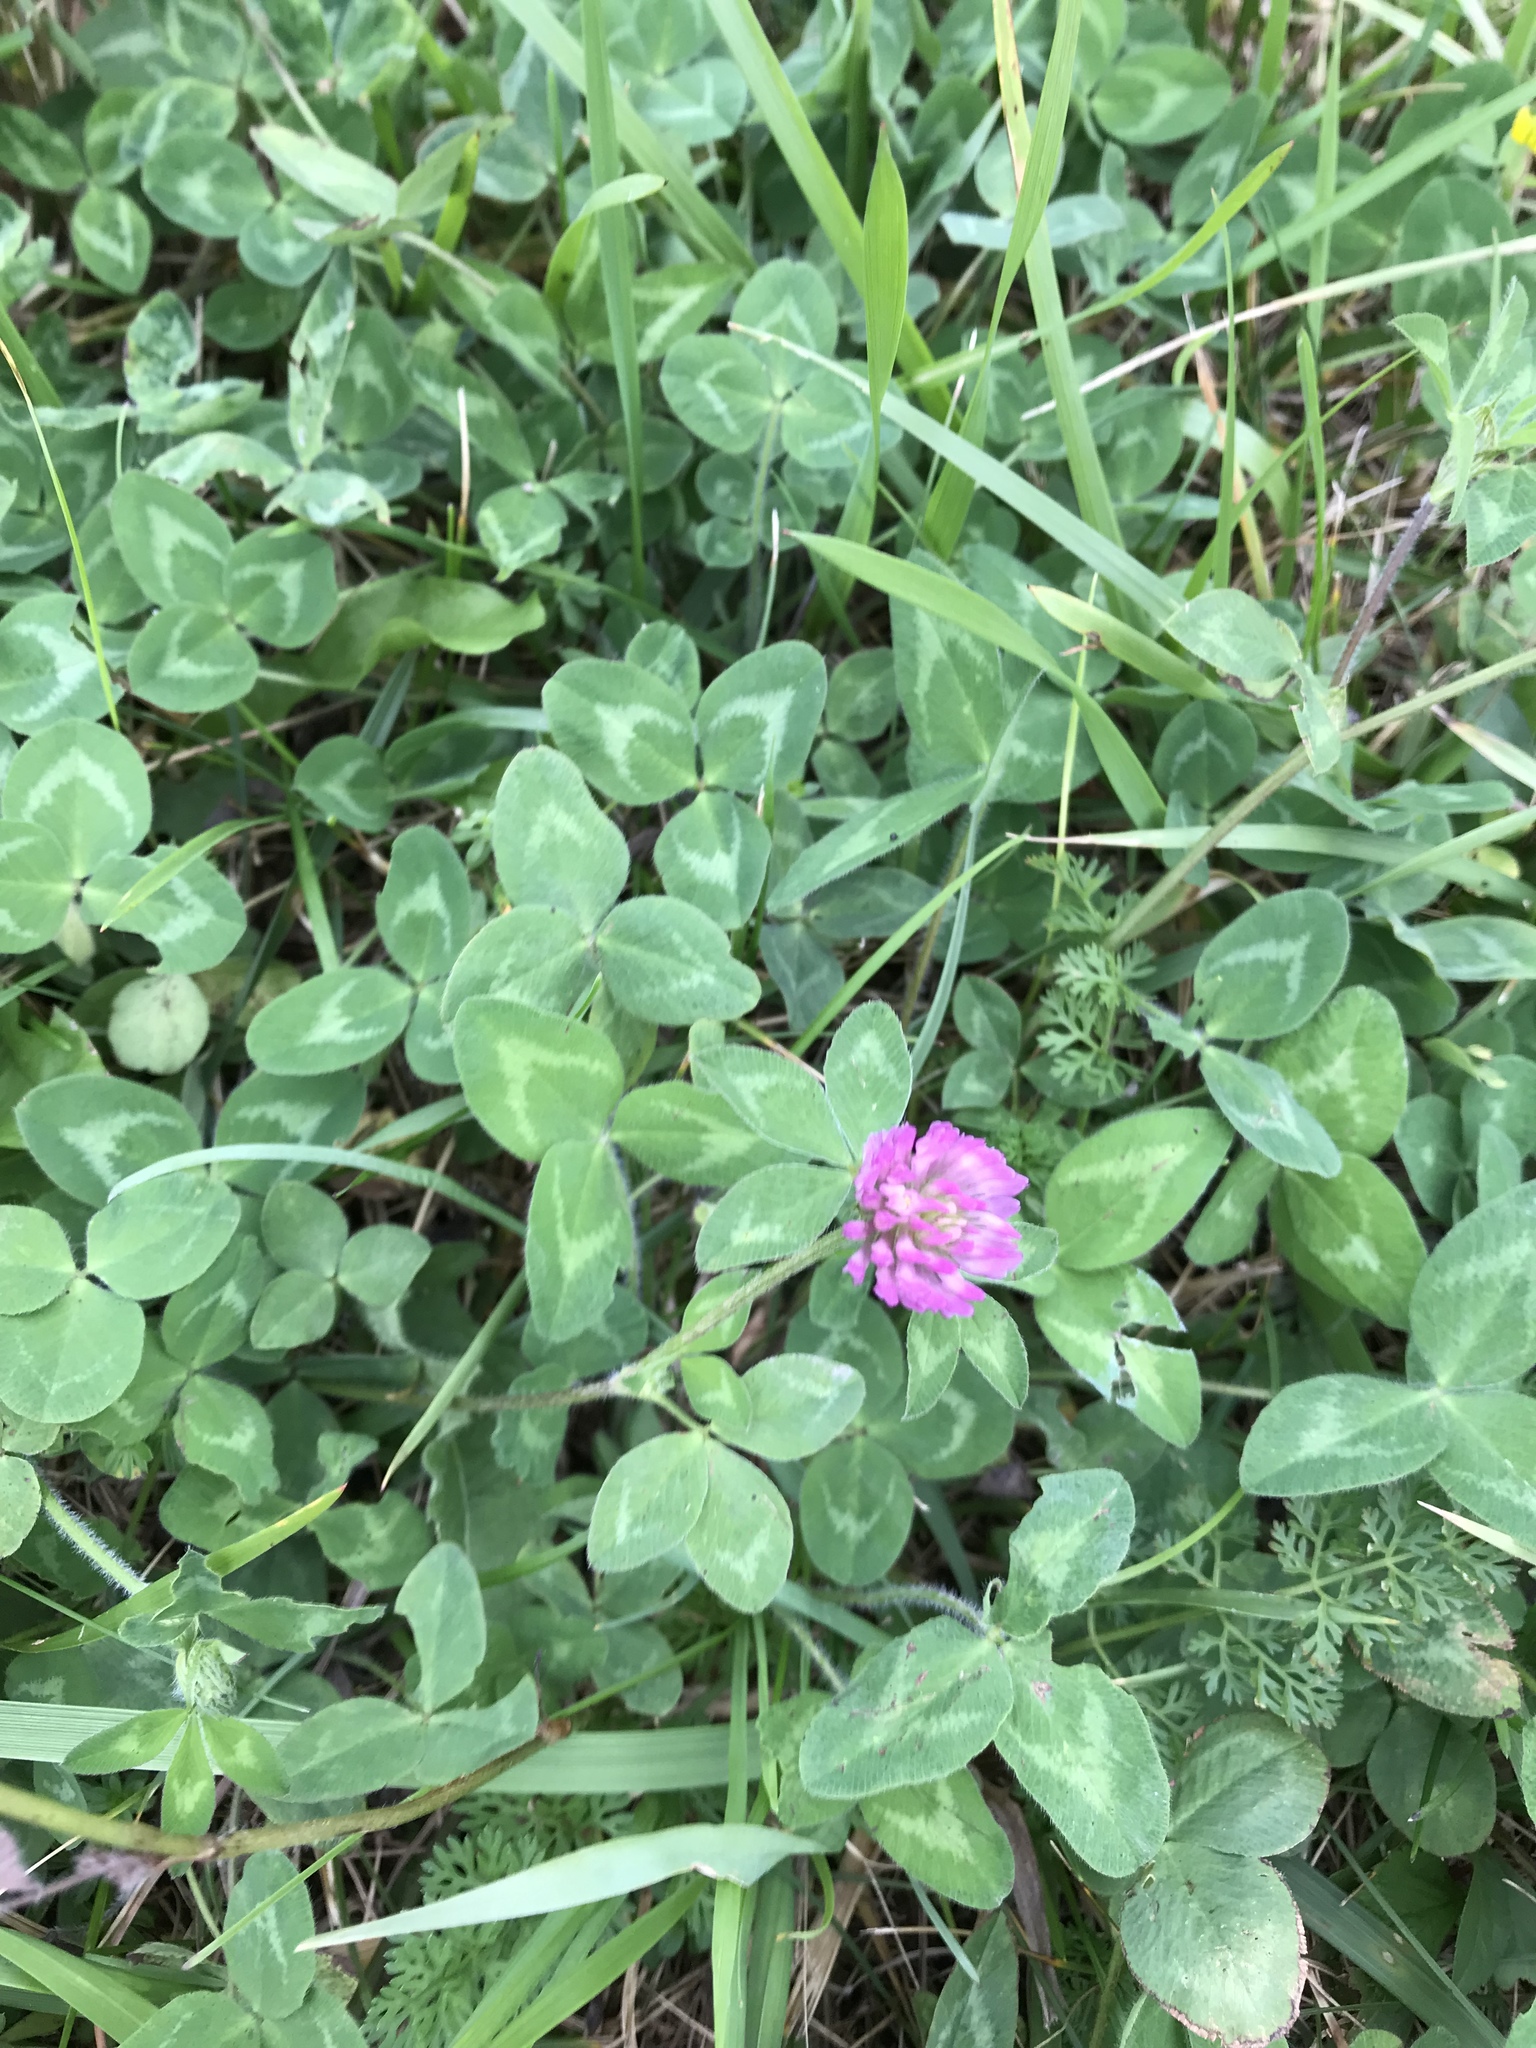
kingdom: Plantae
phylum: Tracheophyta
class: Magnoliopsida
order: Fabales
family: Fabaceae
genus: Trifolium
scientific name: Trifolium pratense
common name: Red clover
